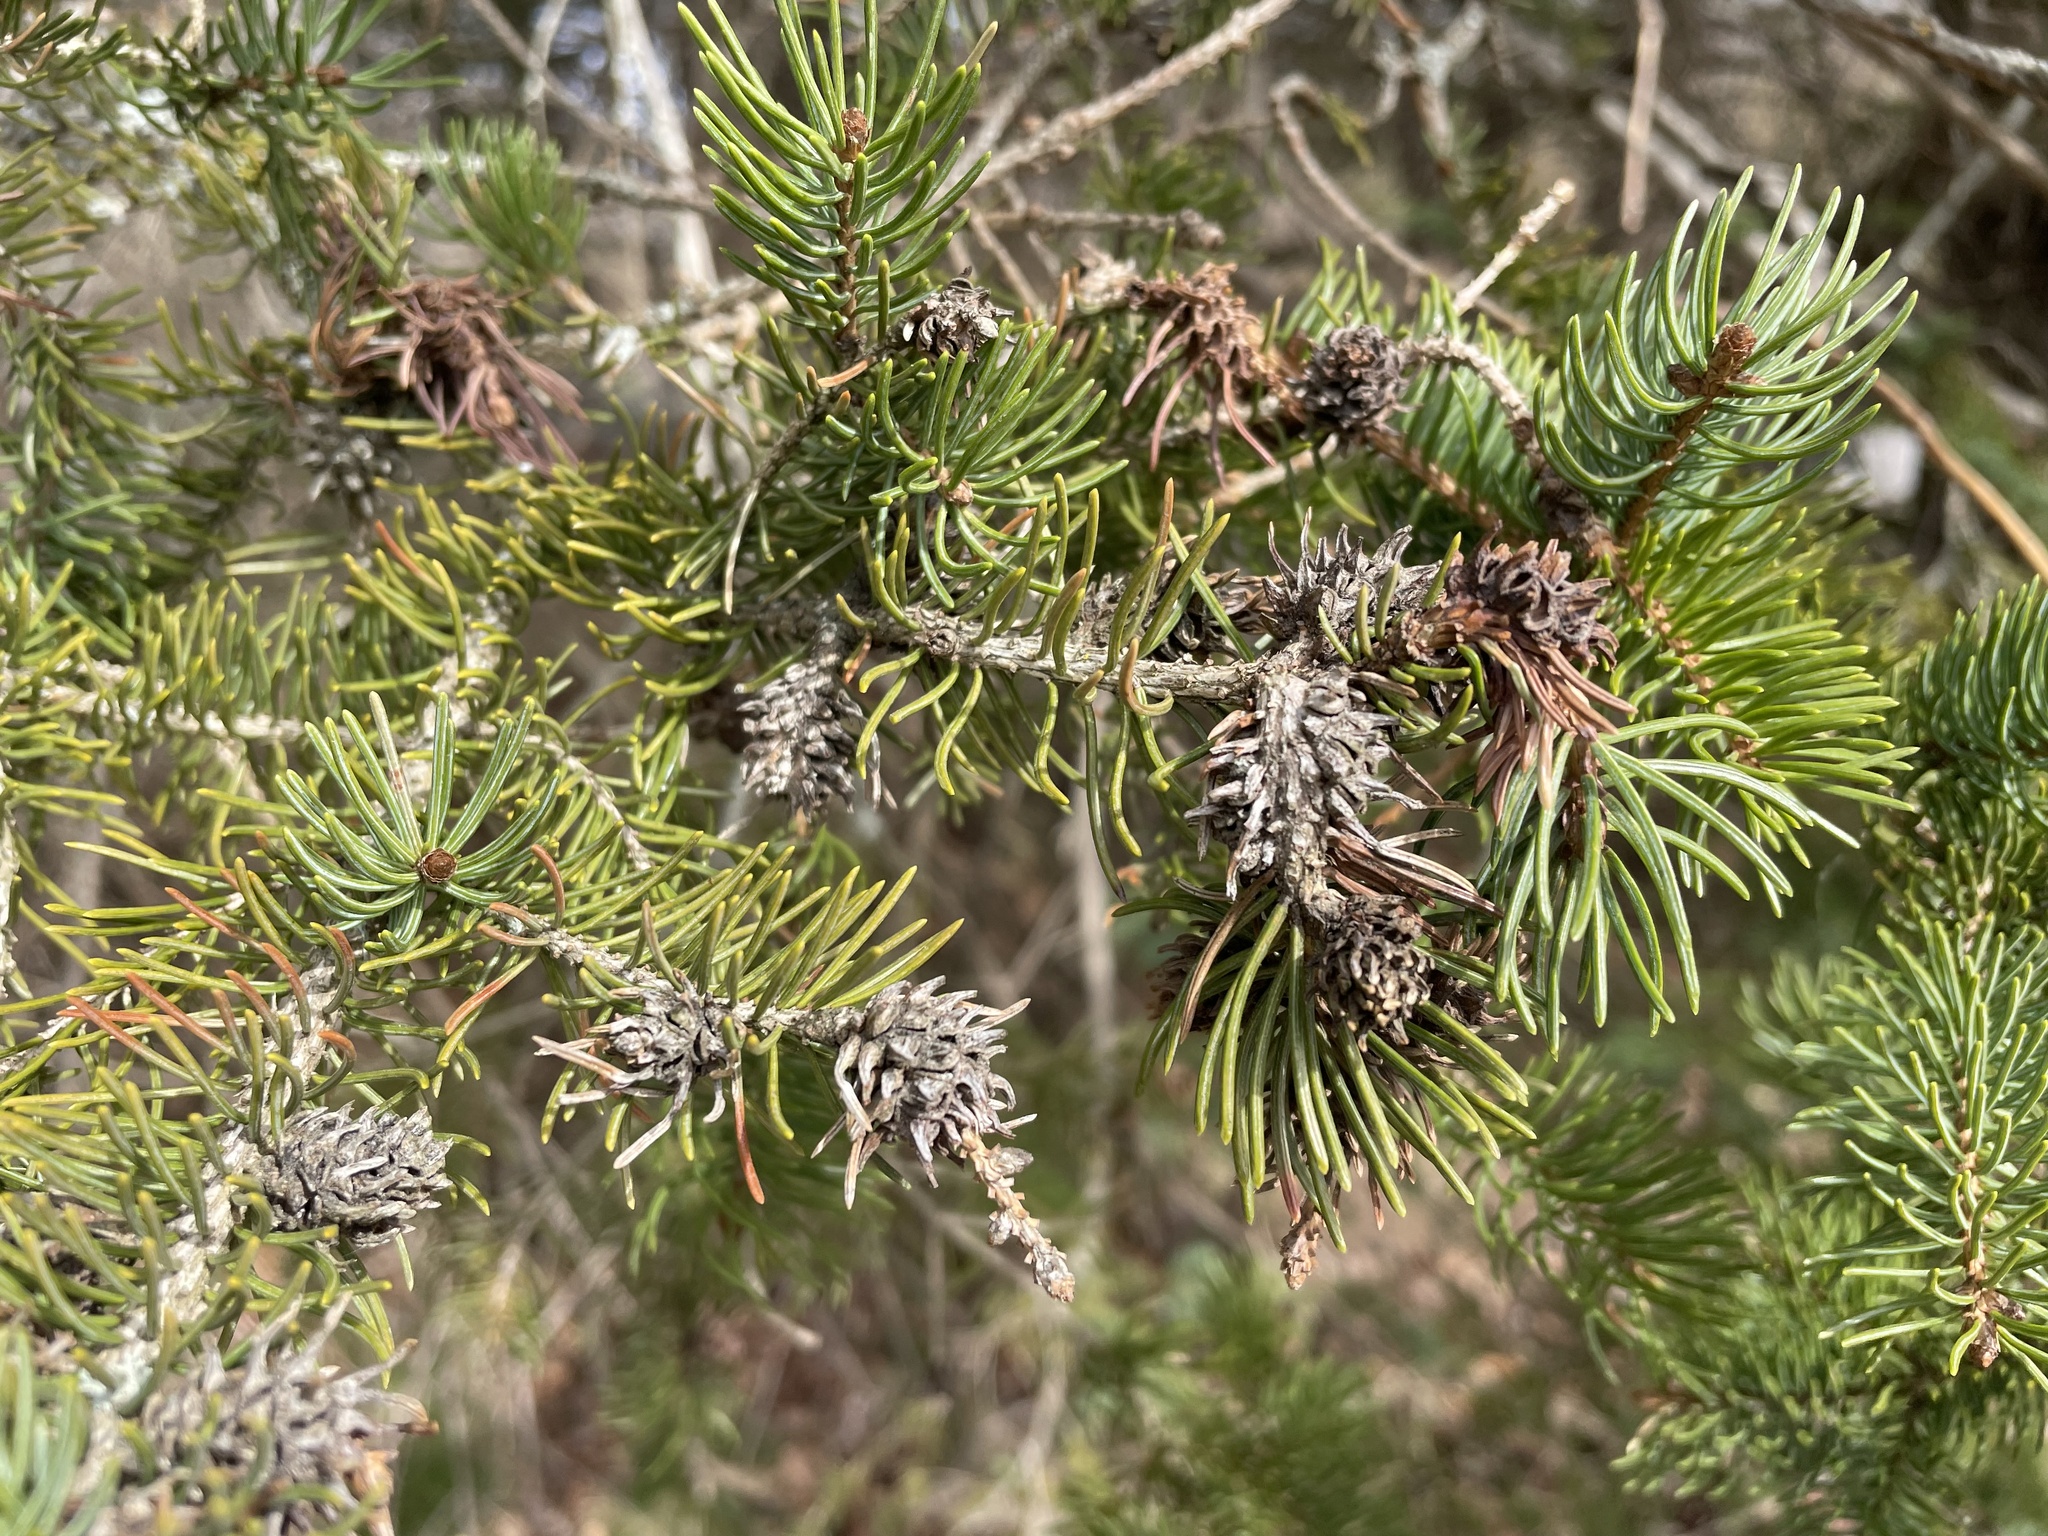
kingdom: Animalia
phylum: Arthropoda
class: Insecta
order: Hemiptera
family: Adelgidae
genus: Adelges
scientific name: Adelges abietis
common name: Eastern spruce gall adelgid
